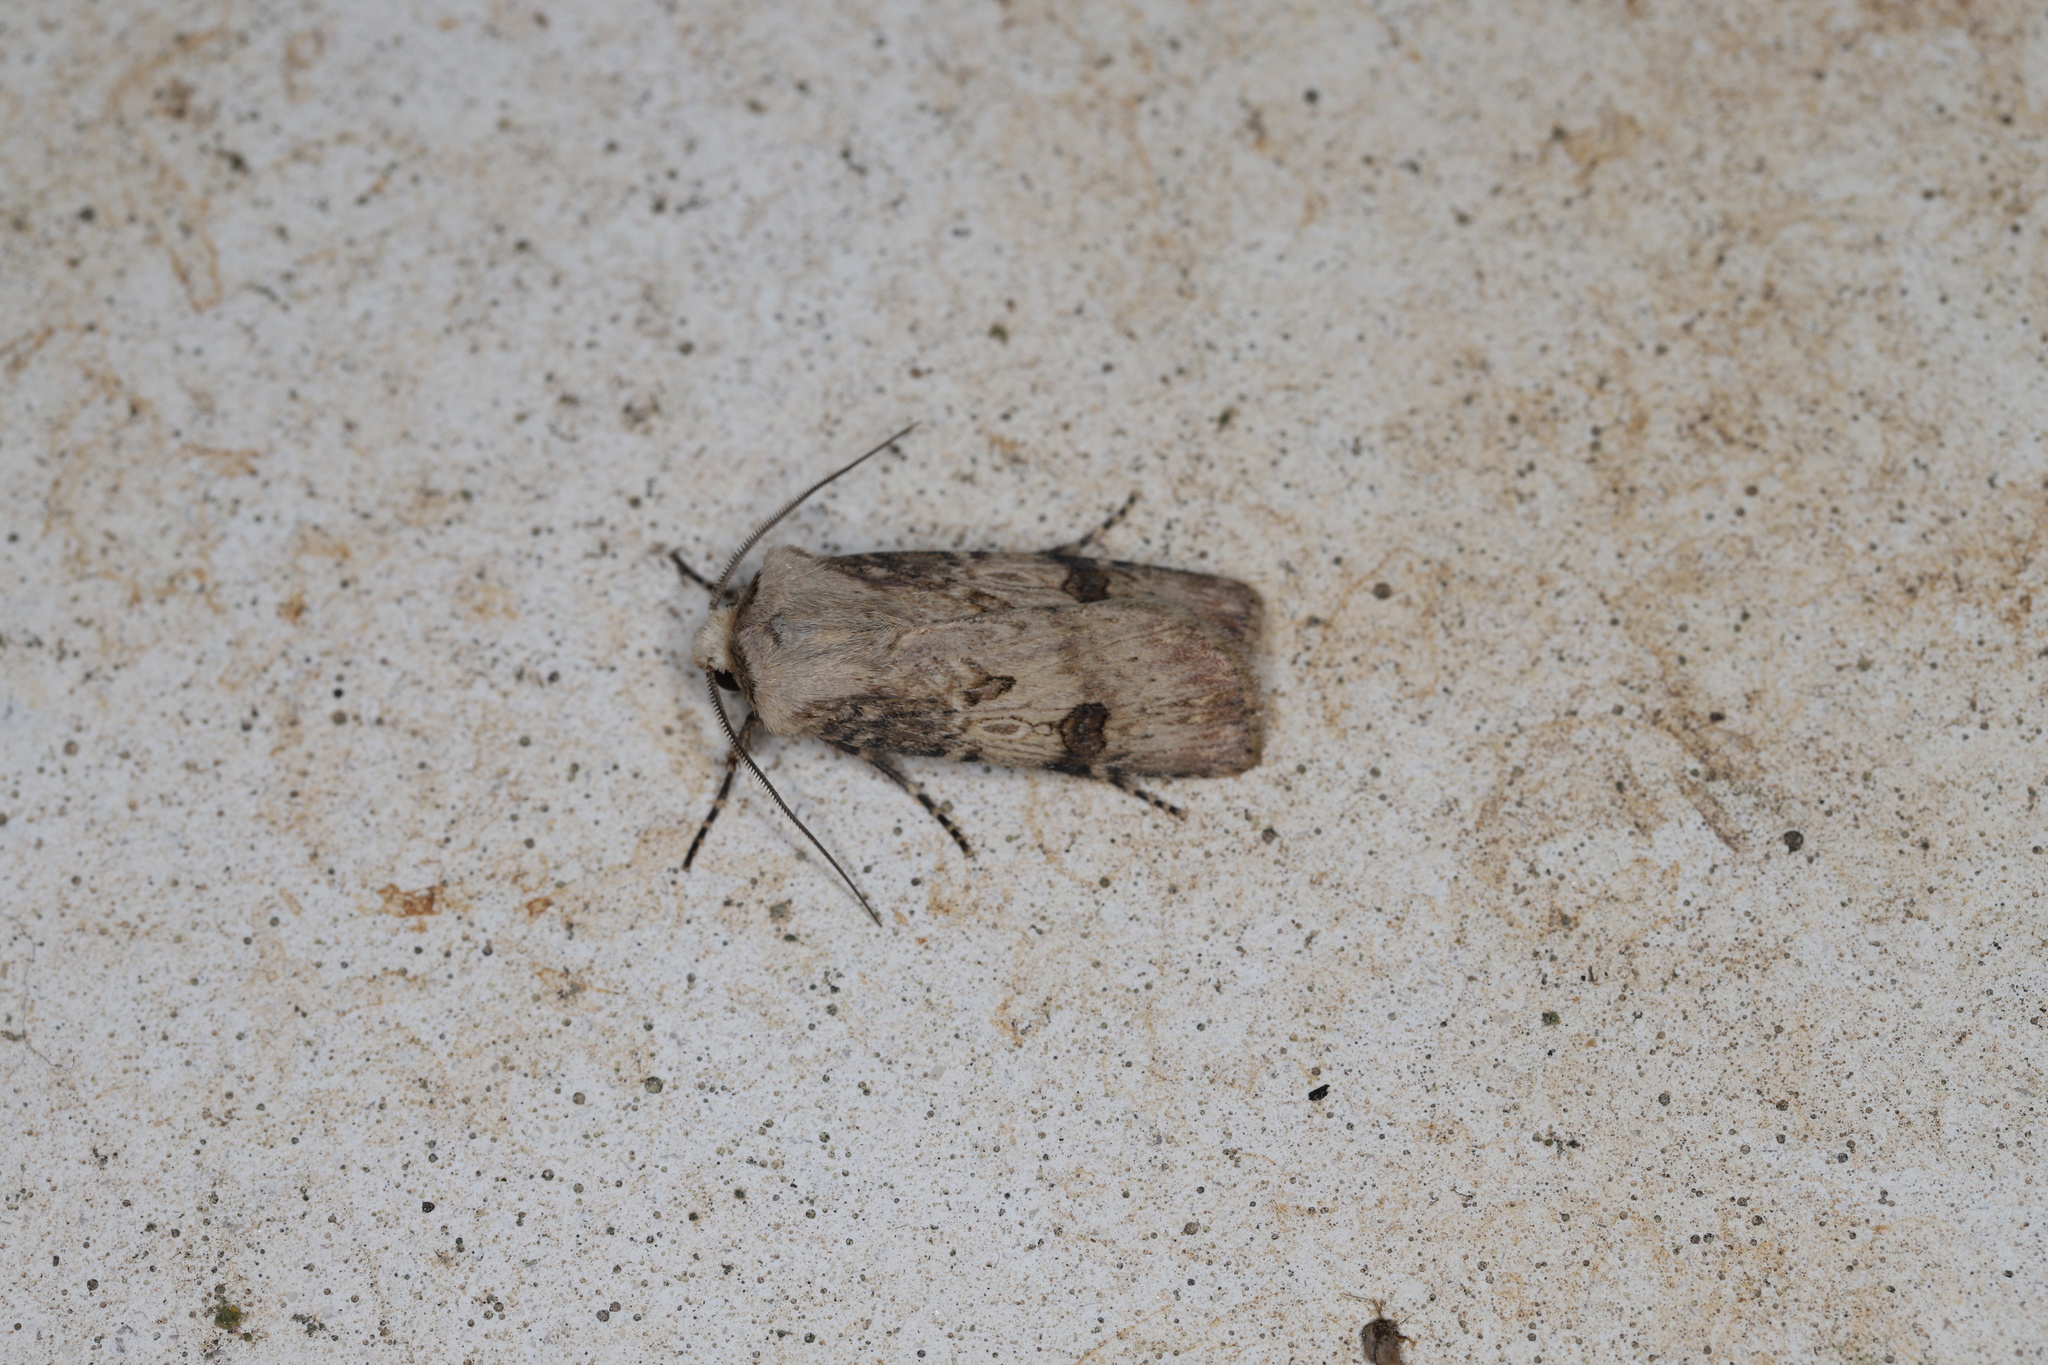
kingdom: Animalia
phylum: Arthropoda
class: Insecta
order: Lepidoptera
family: Noctuidae
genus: Agrotis
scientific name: Agrotis puta
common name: Shuttle-shaped dart
